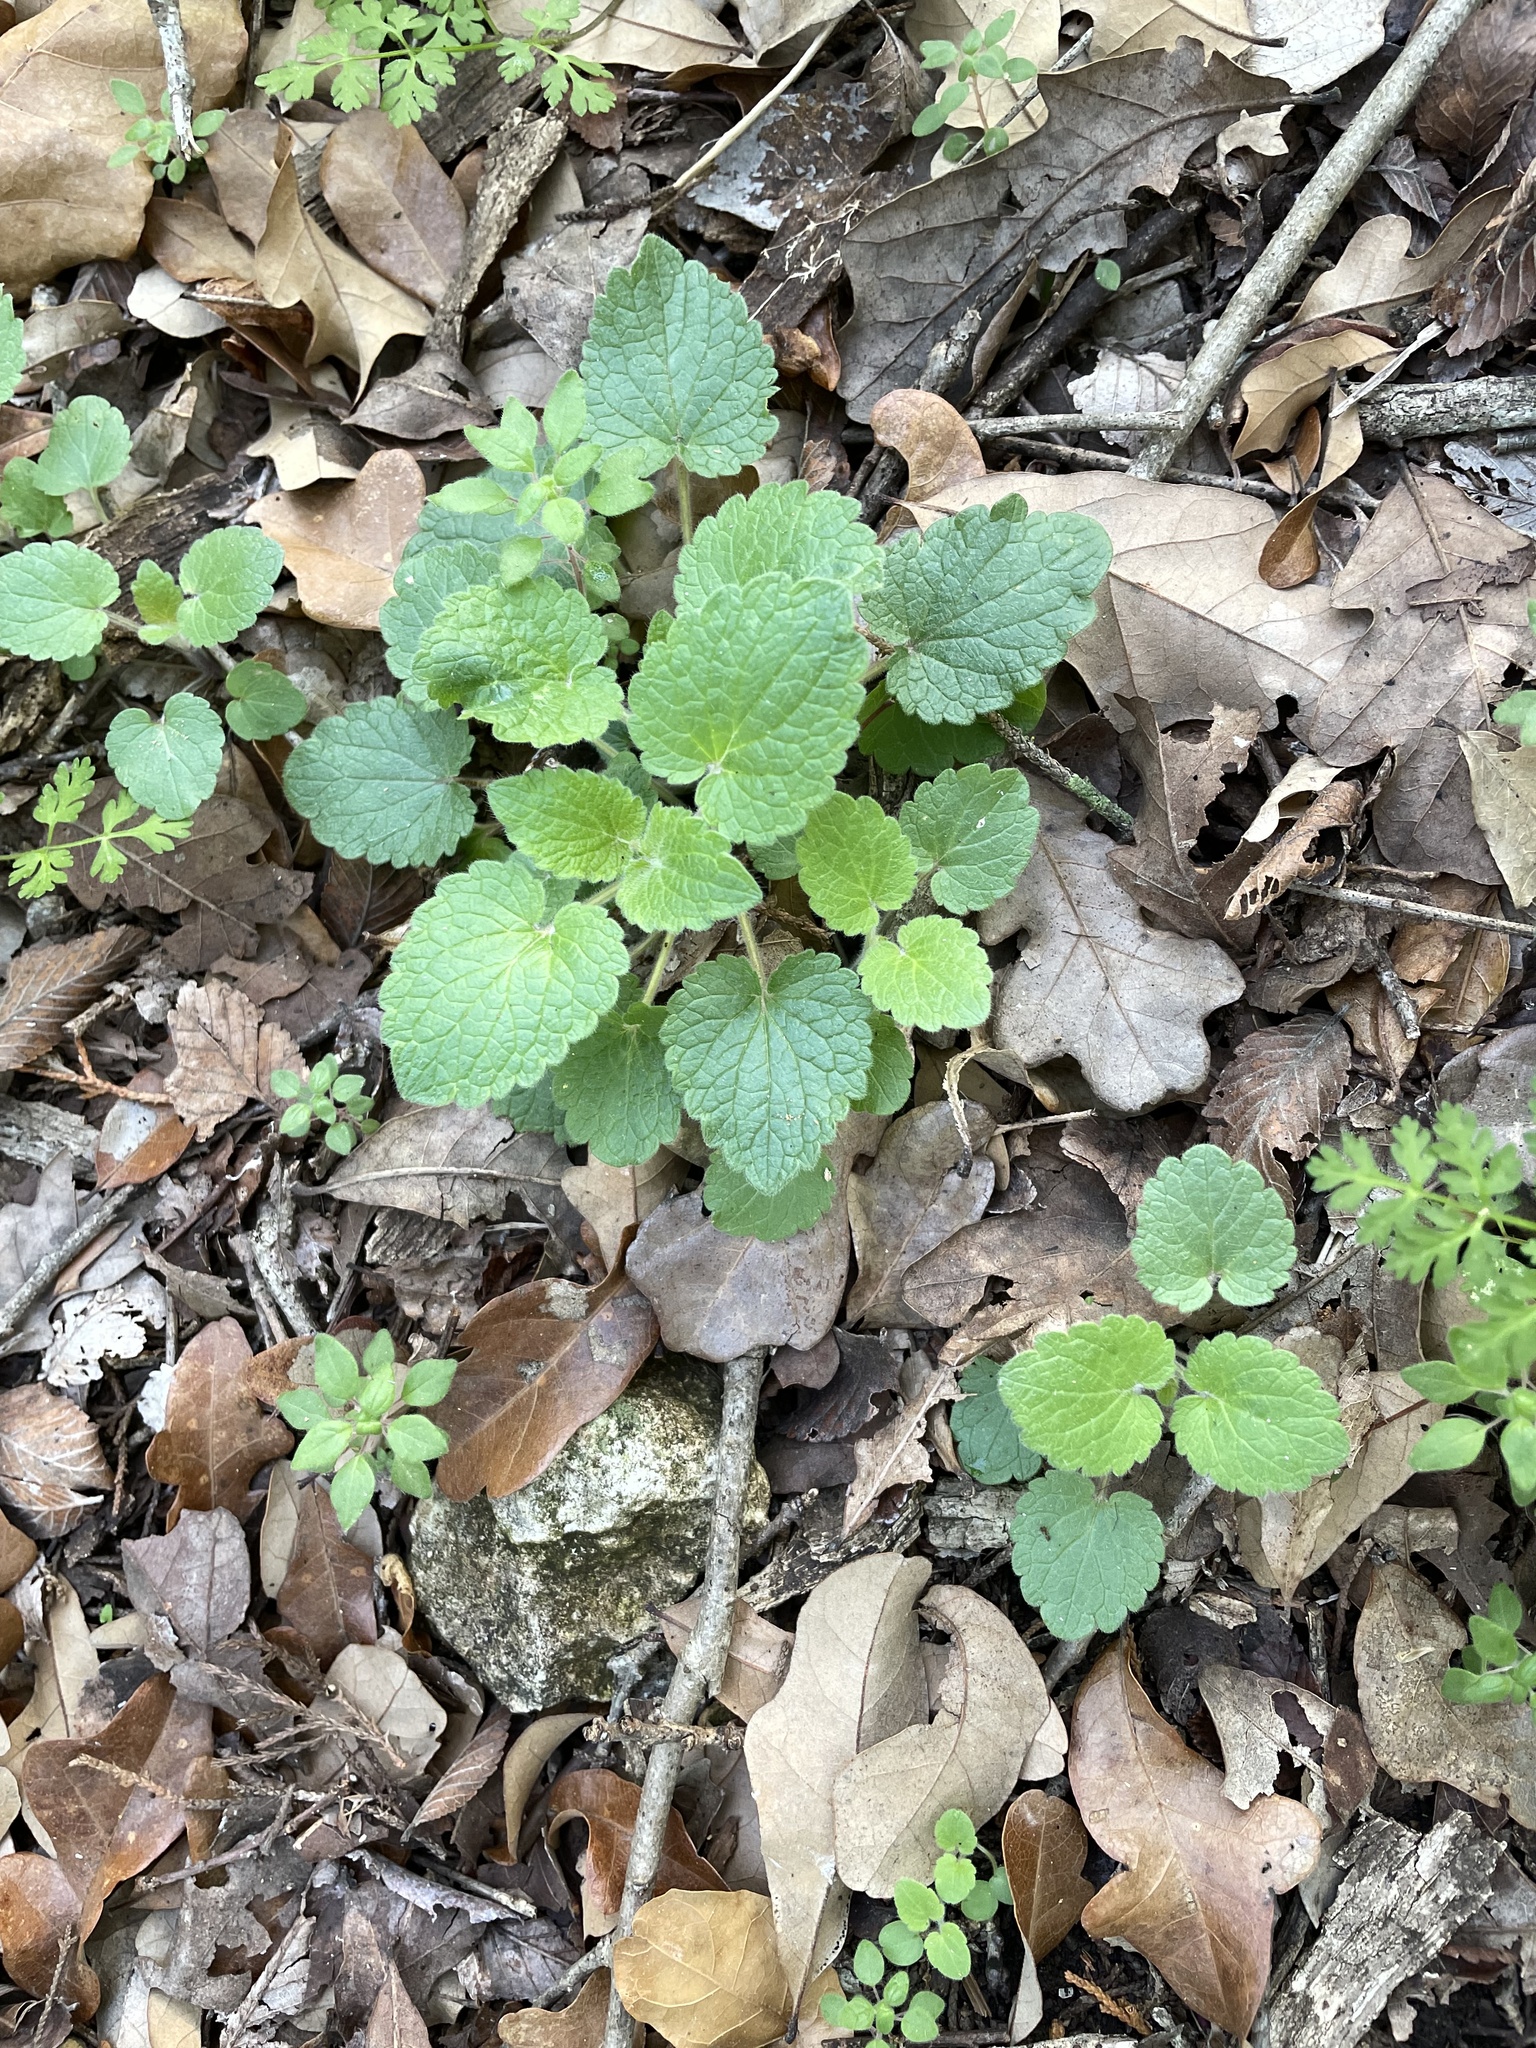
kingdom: Plantae
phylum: Tracheophyta
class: Magnoliopsida
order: Lamiales
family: Lamiaceae
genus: Salvia
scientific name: Salvia roemeriana
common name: Cedar sage
